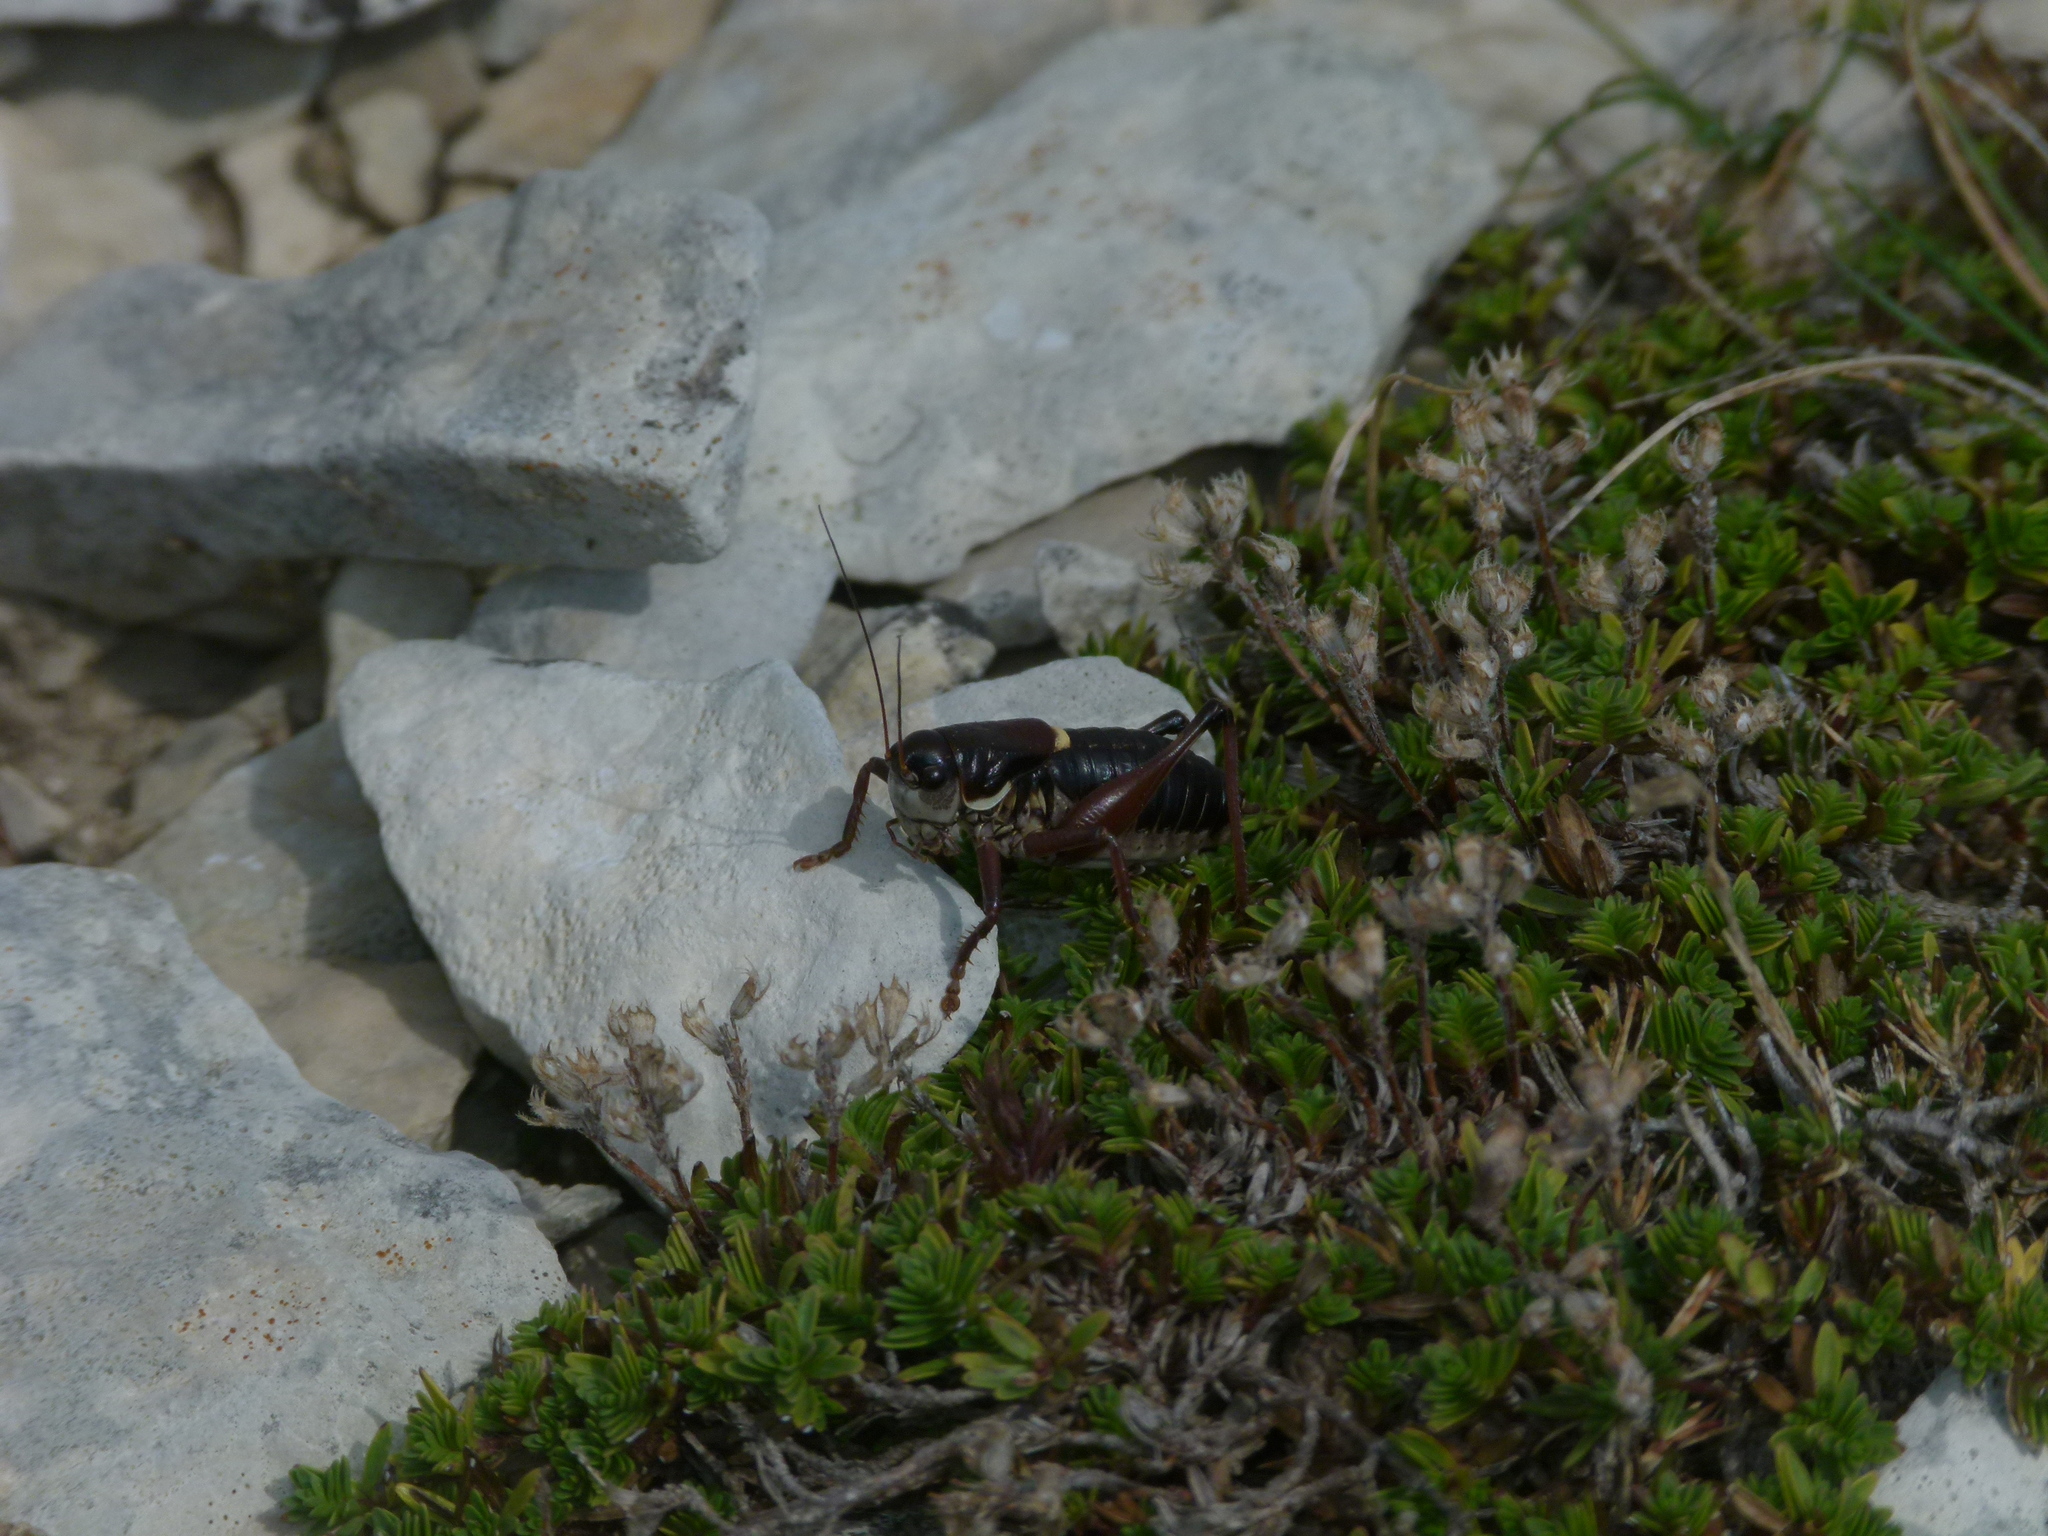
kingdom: Animalia
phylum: Arthropoda
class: Insecta
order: Orthoptera
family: Tettigoniidae
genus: Anonconotus
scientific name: Anonconotus ghilianii
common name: Ghiliani's alpine bush-cricket
